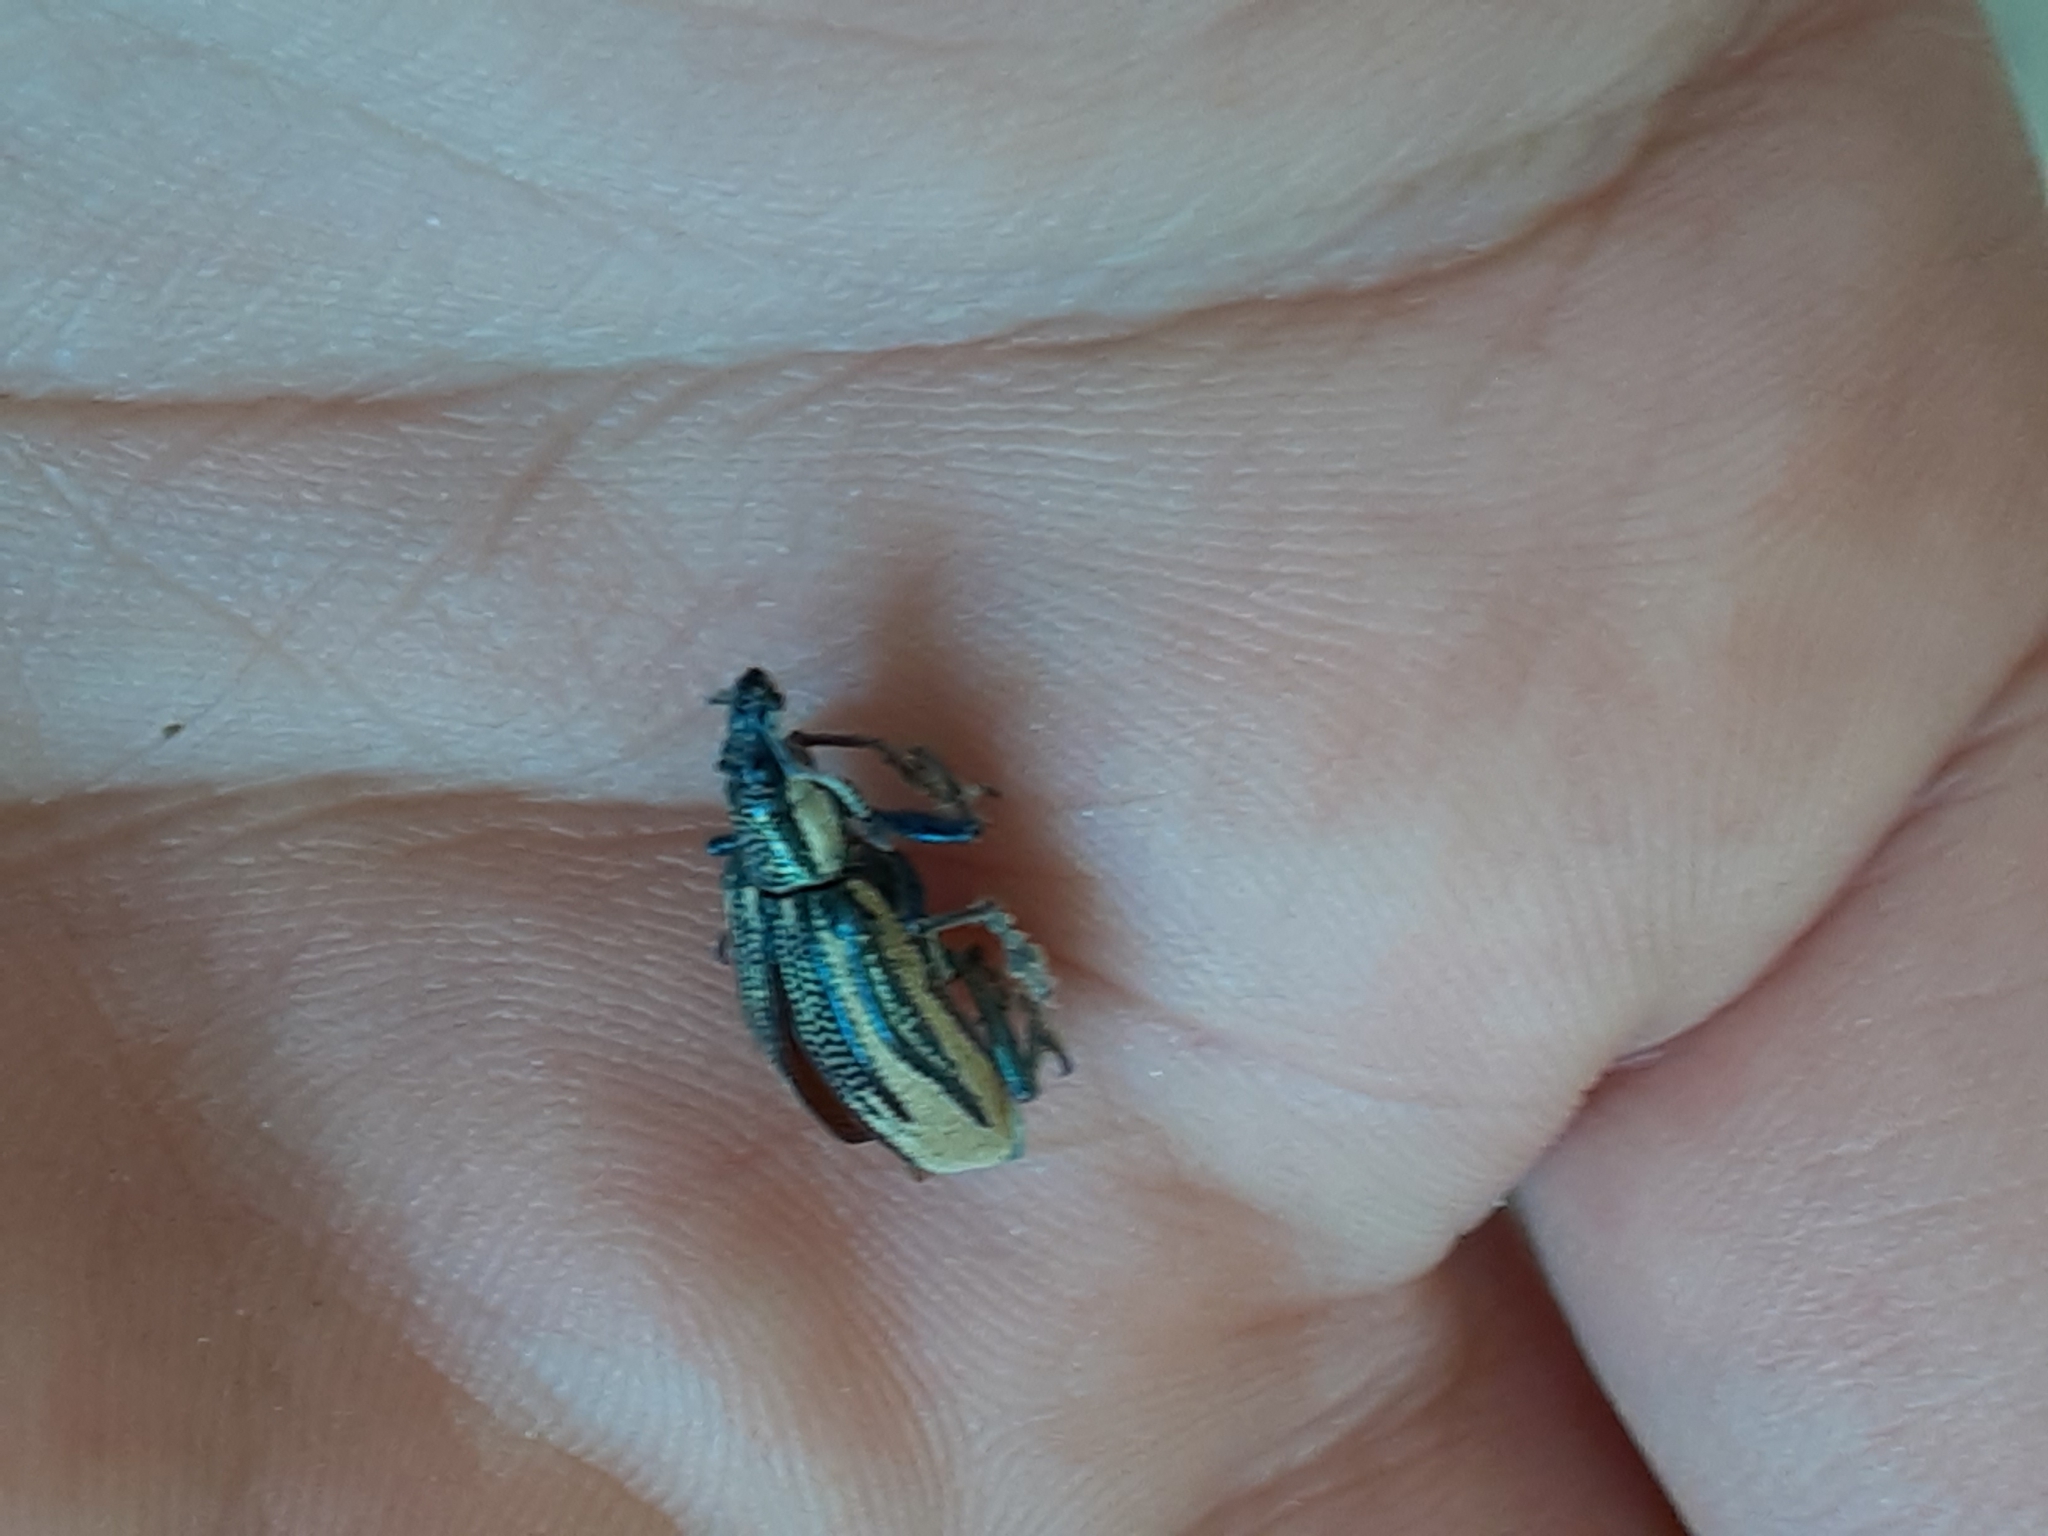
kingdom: Animalia
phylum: Arthropoda
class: Insecta
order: Coleoptera
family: Curculionidae
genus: Diaprepes
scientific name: Diaprepes abbreviatus
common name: Root weevil
